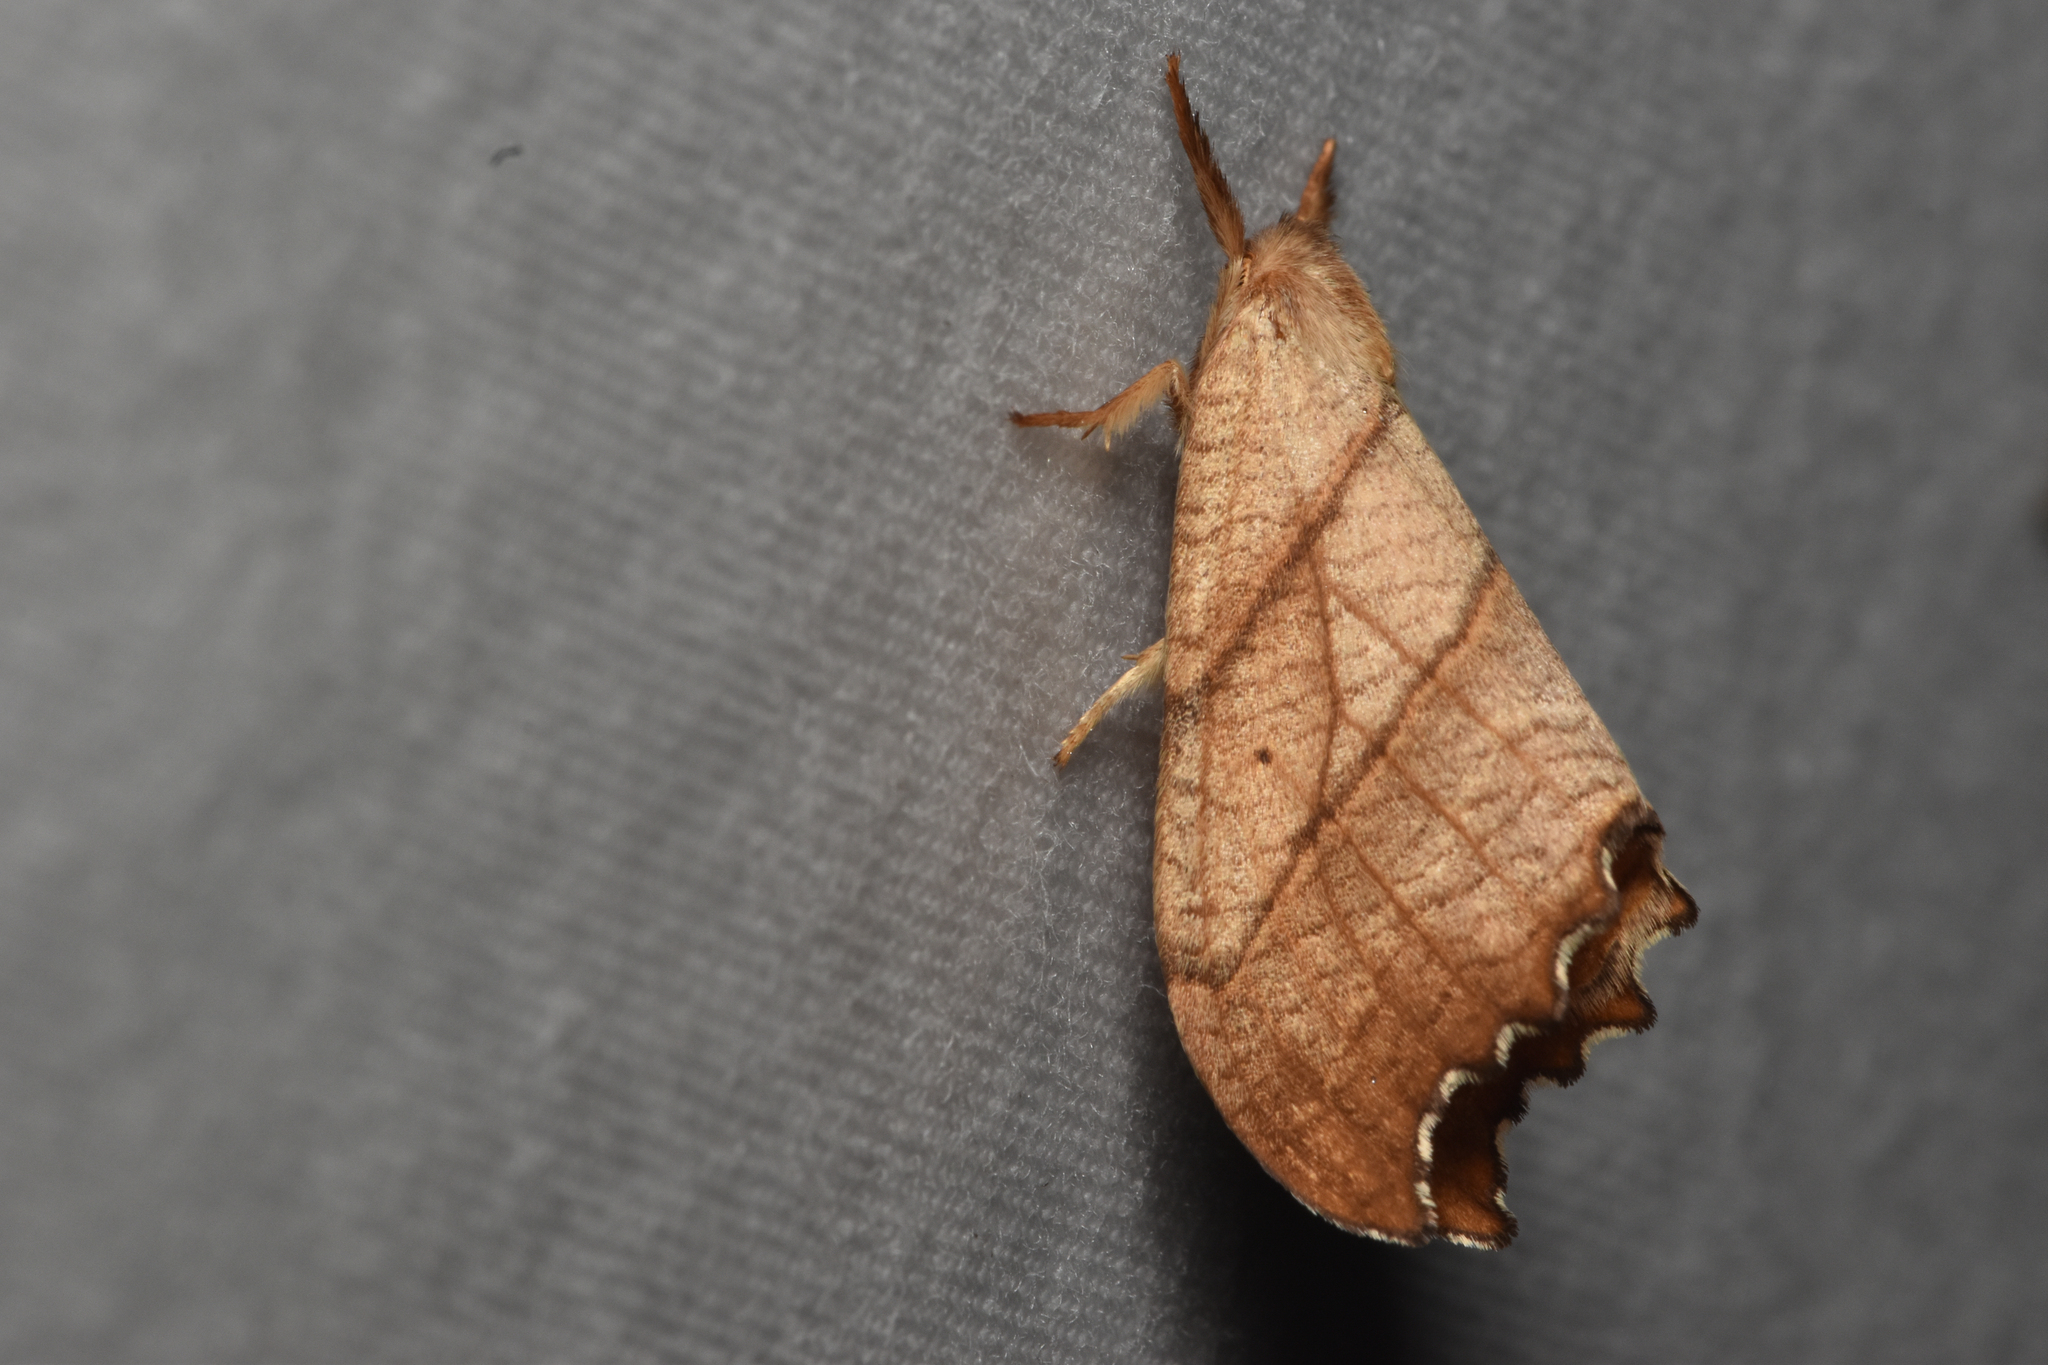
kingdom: Animalia
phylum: Arthropoda
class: Insecta
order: Lepidoptera
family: Drepanidae
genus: Falcaria
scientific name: Falcaria bilineata
